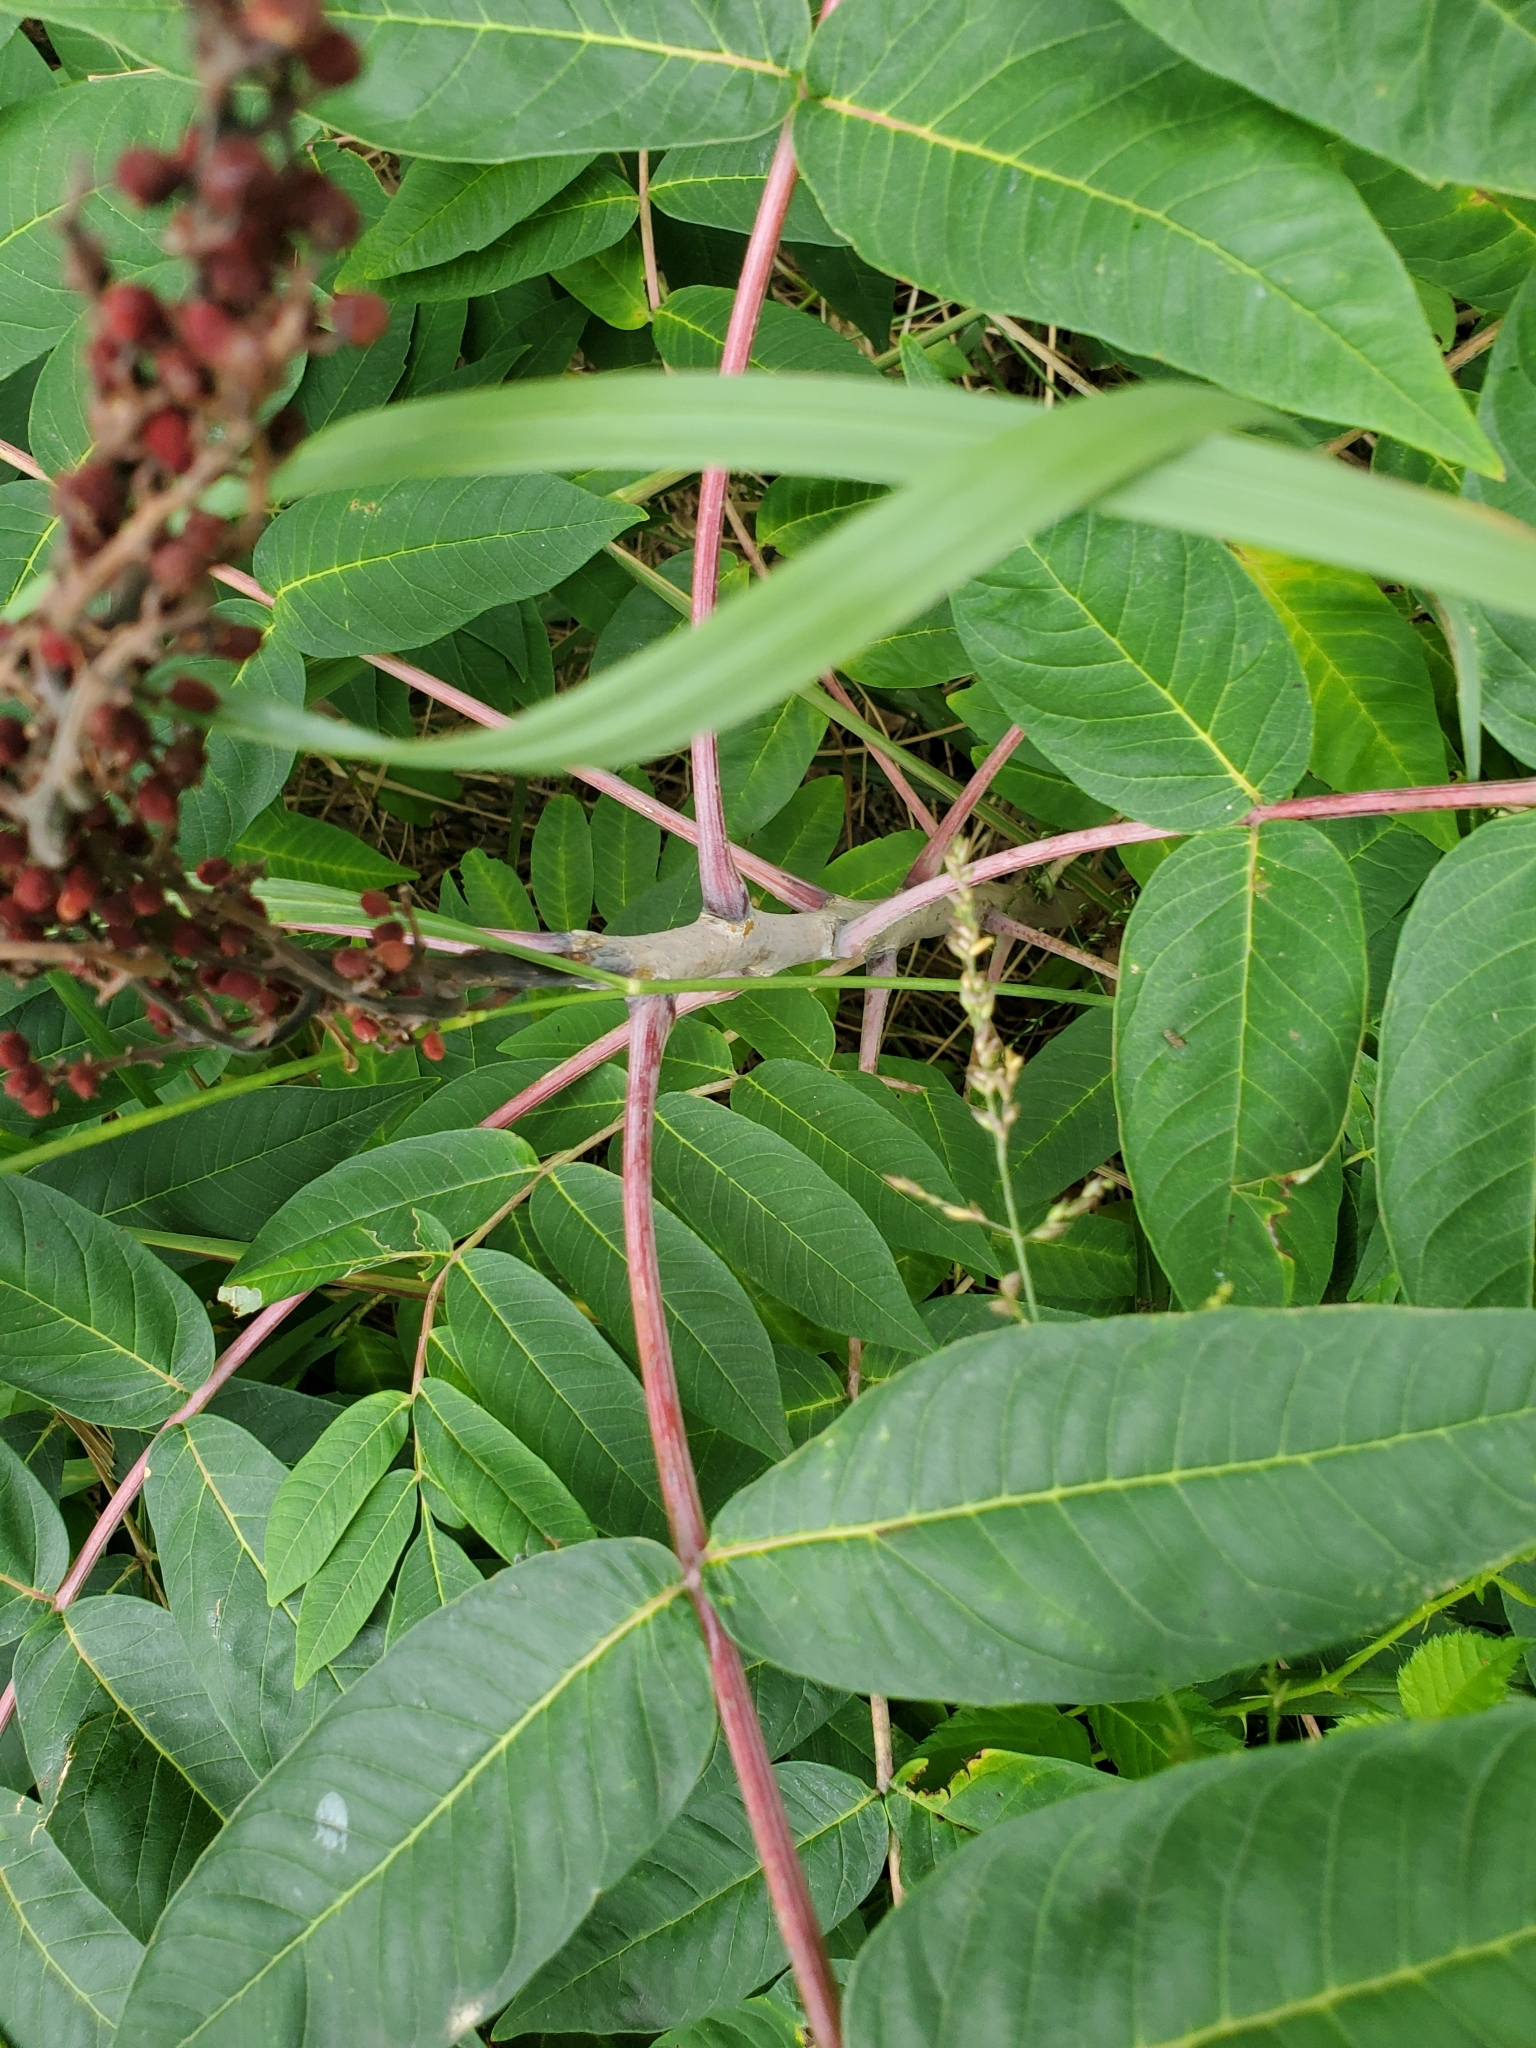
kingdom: Plantae
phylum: Tracheophyta
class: Magnoliopsida
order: Sapindales
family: Anacardiaceae
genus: Rhus
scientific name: Rhus glabra
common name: Scarlet sumac
